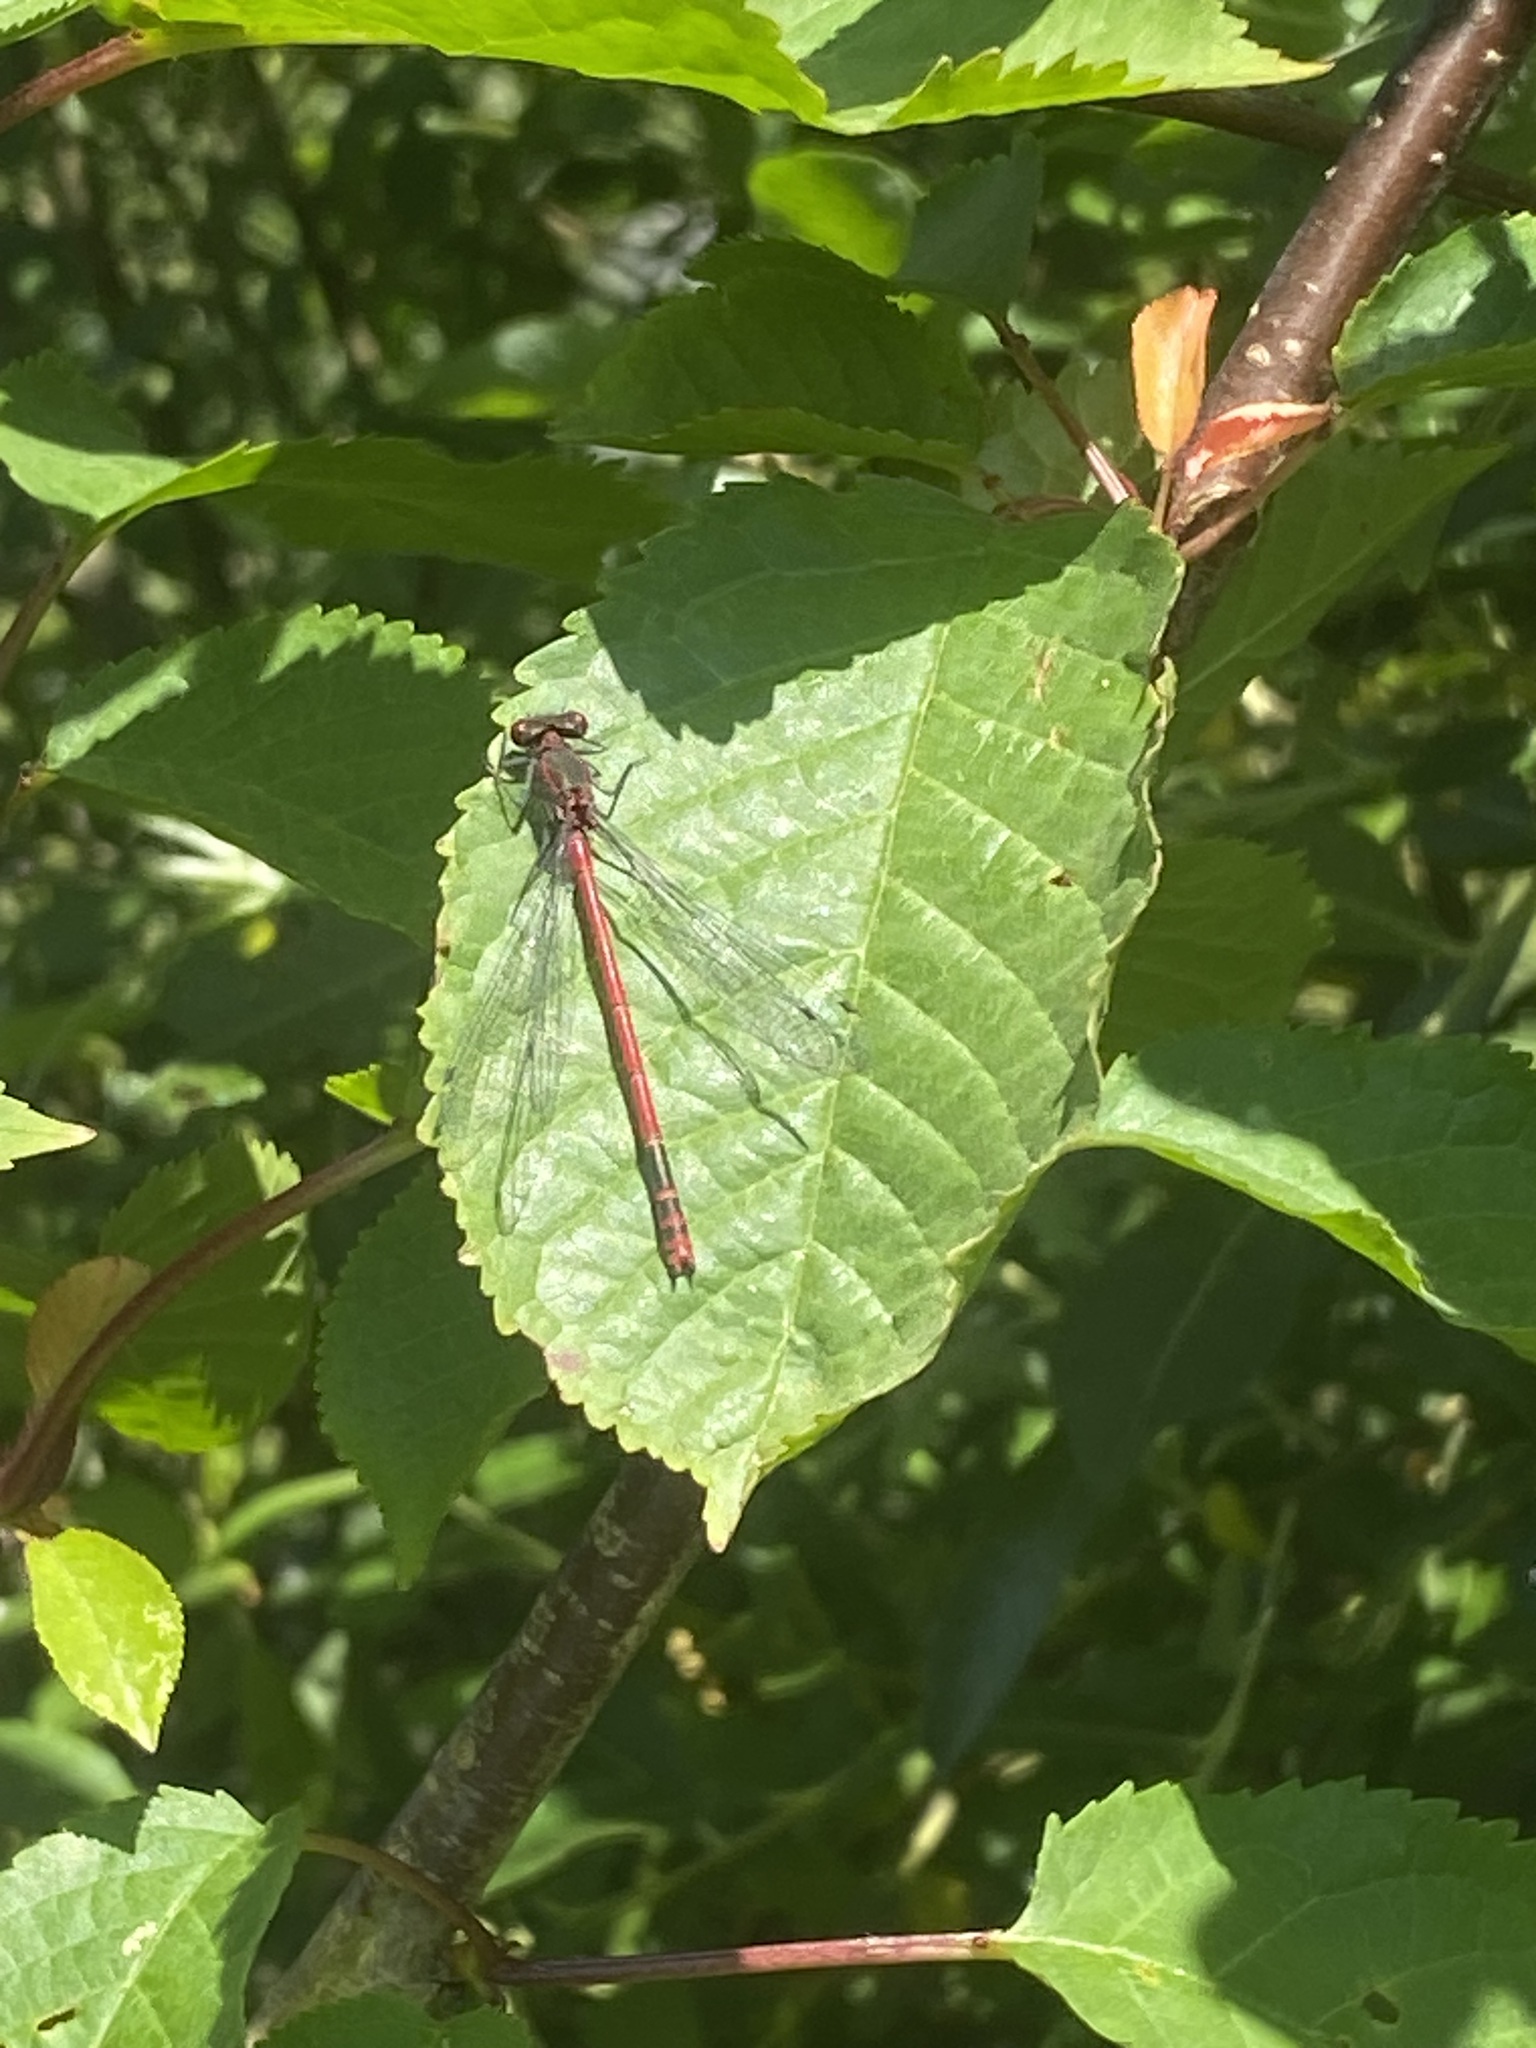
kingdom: Animalia
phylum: Arthropoda
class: Insecta
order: Odonata
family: Coenagrionidae
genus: Pyrrhosoma
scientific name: Pyrrhosoma nymphula
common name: Large red damsel
